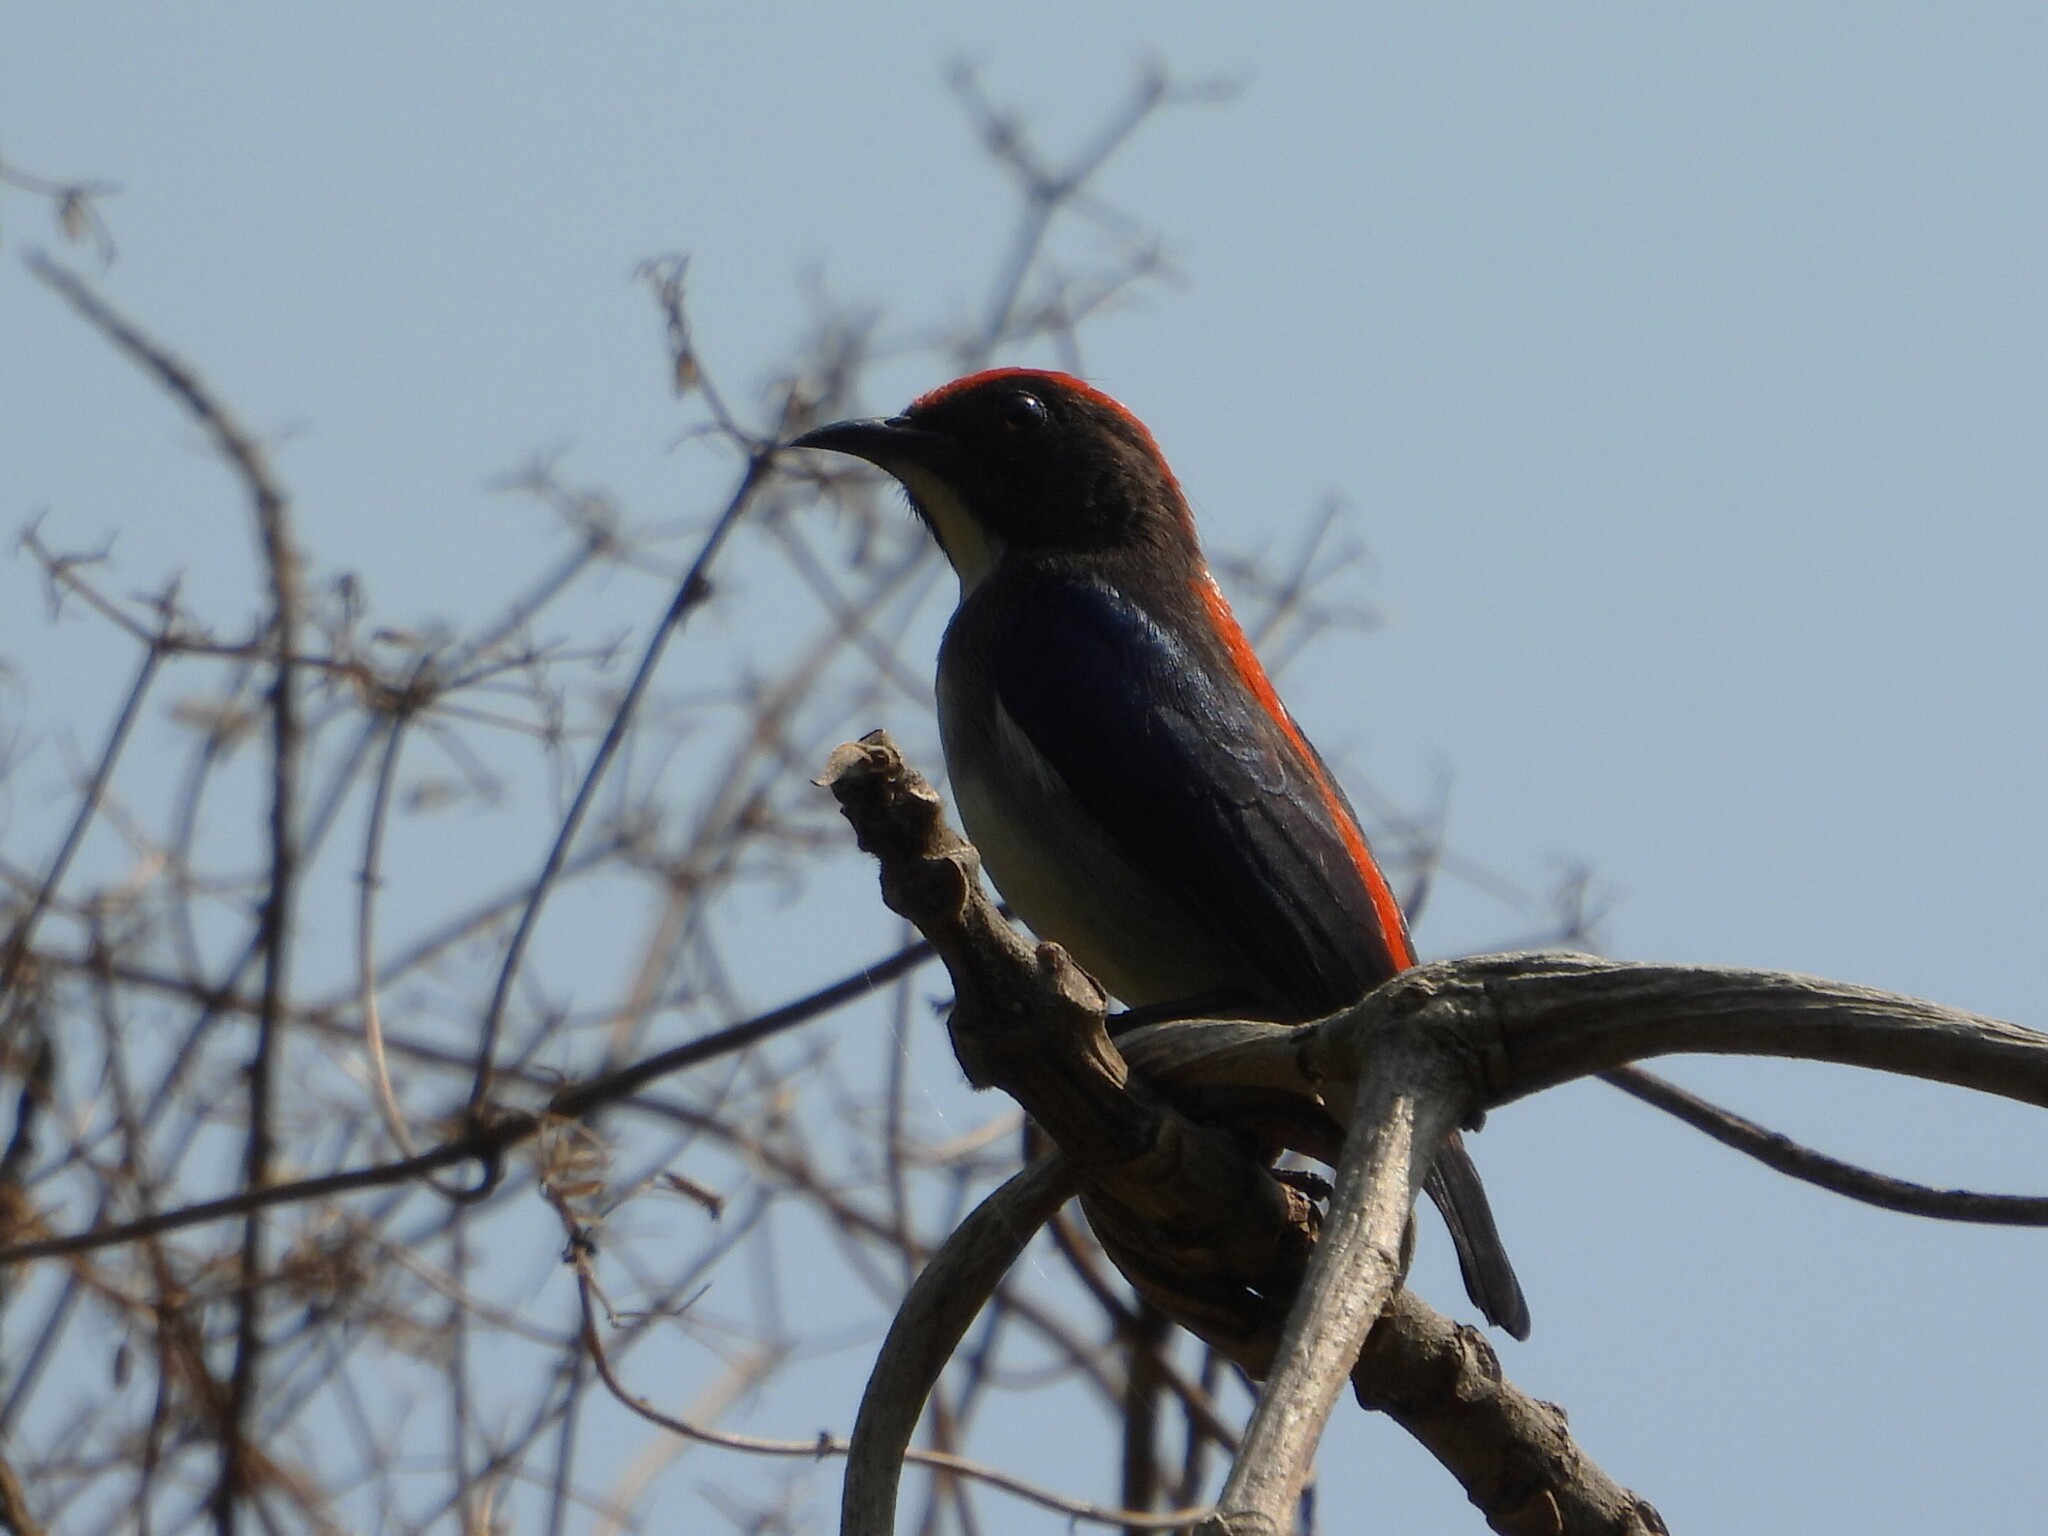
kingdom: Animalia
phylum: Chordata
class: Aves
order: Passeriformes
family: Dicaeidae
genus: Dicaeum
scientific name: Dicaeum cruentatum
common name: Scarlet-backed flowerpecker
